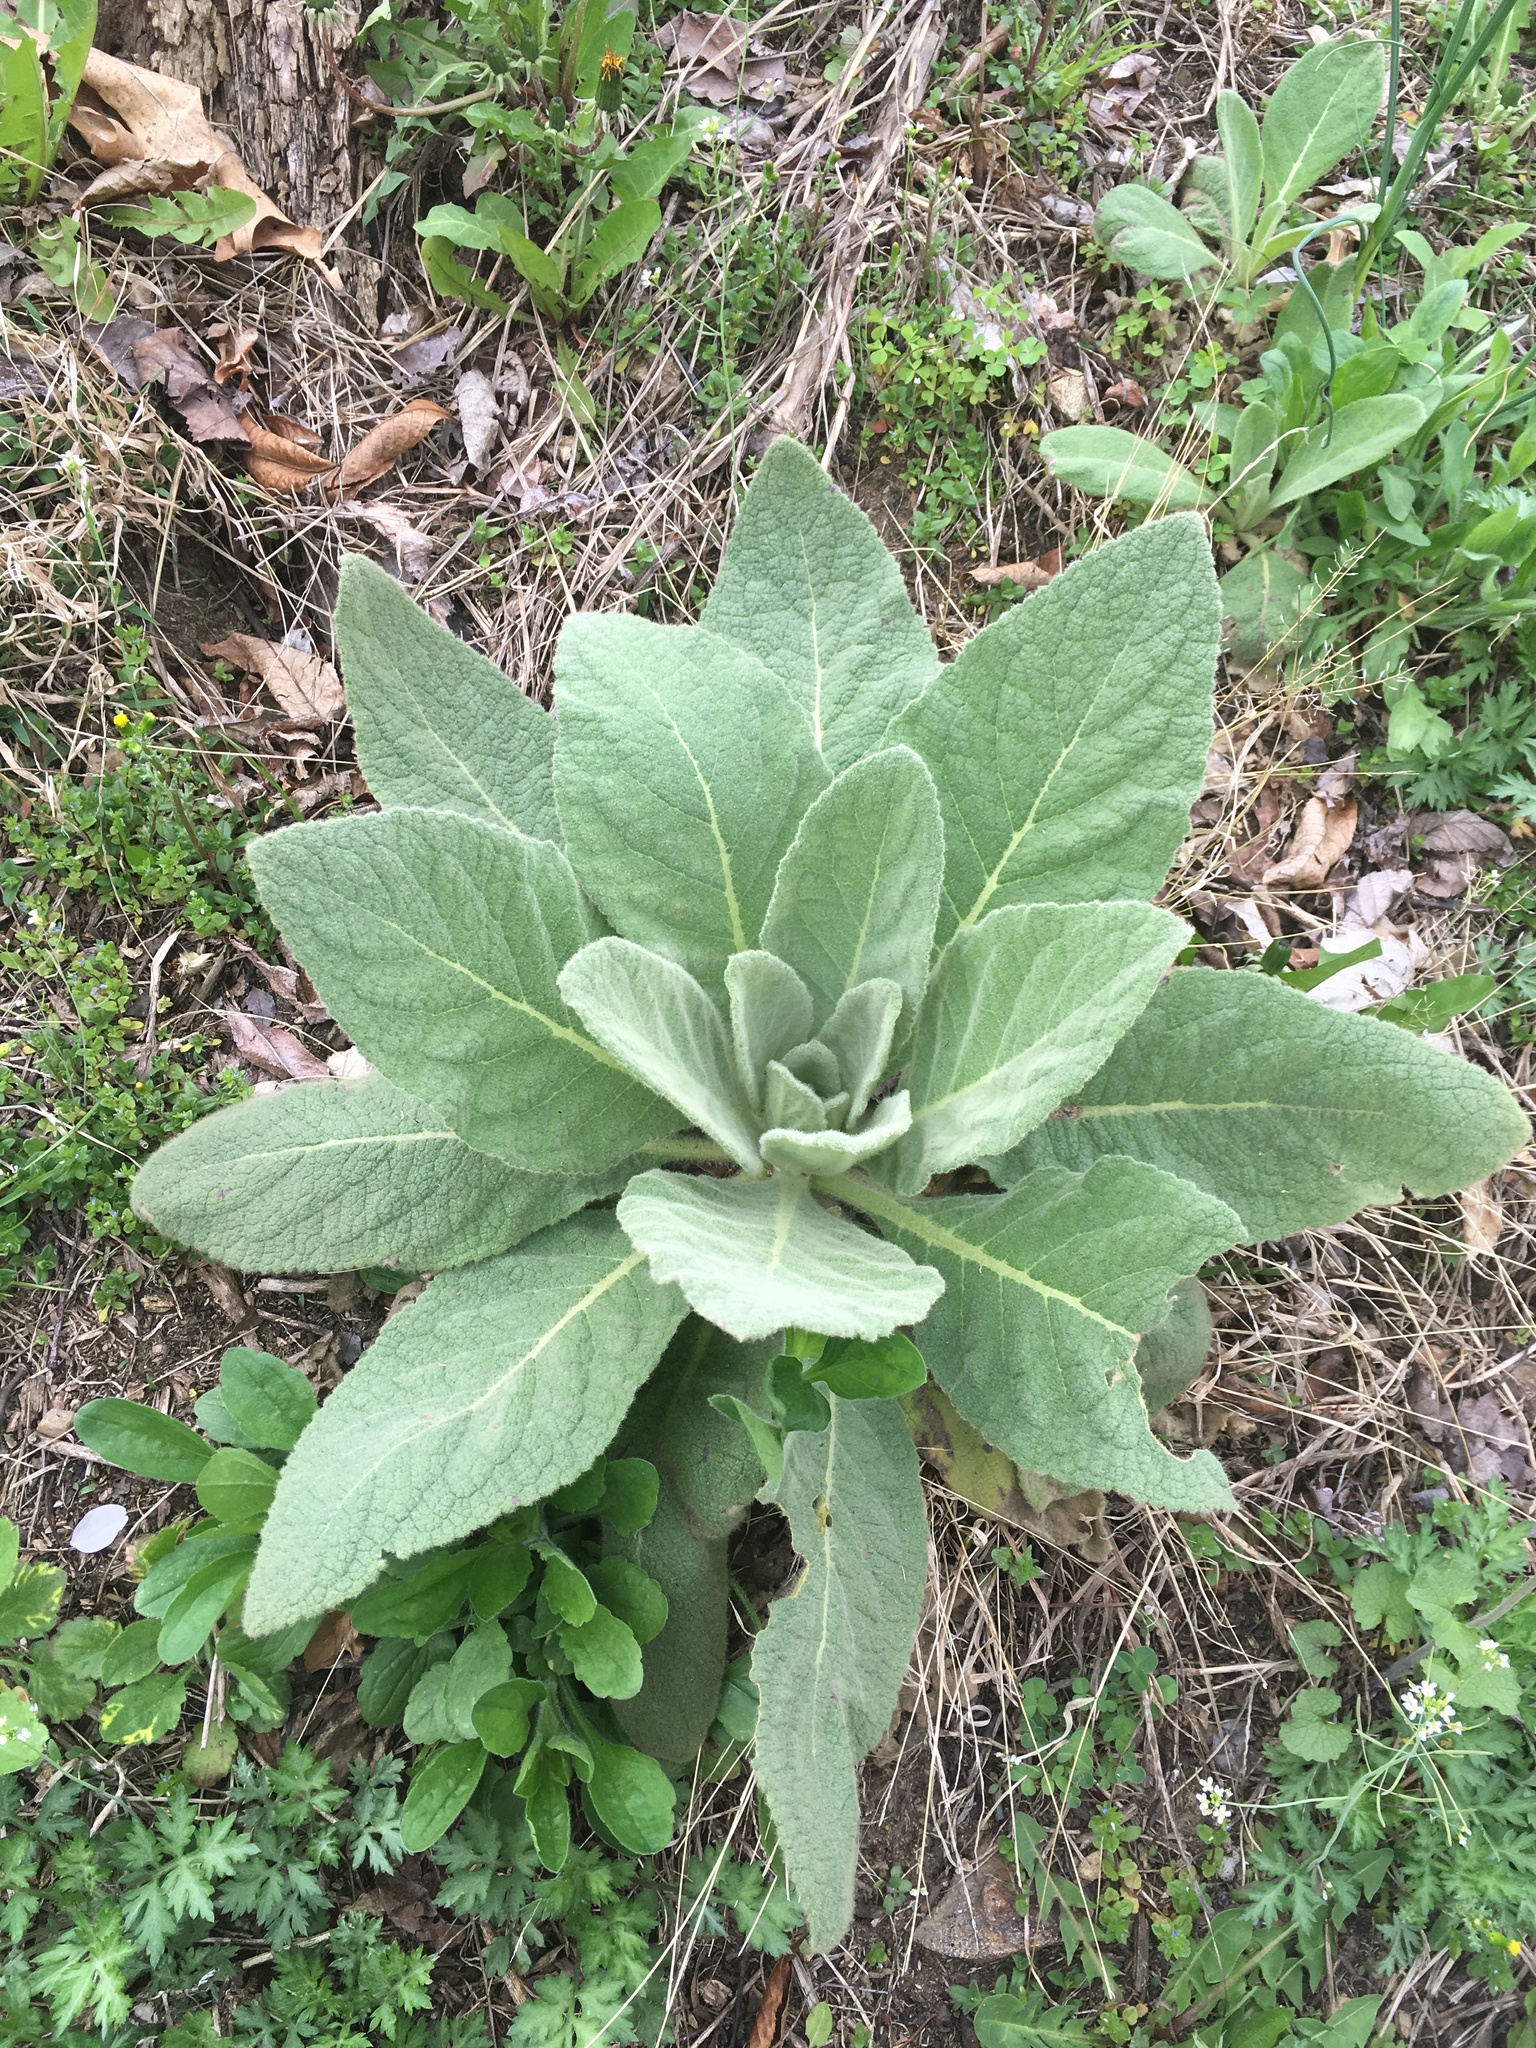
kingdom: Plantae
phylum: Tracheophyta
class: Magnoliopsida
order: Lamiales
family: Scrophulariaceae
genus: Verbascum
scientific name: Verbascum thapsus
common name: Common mullein
